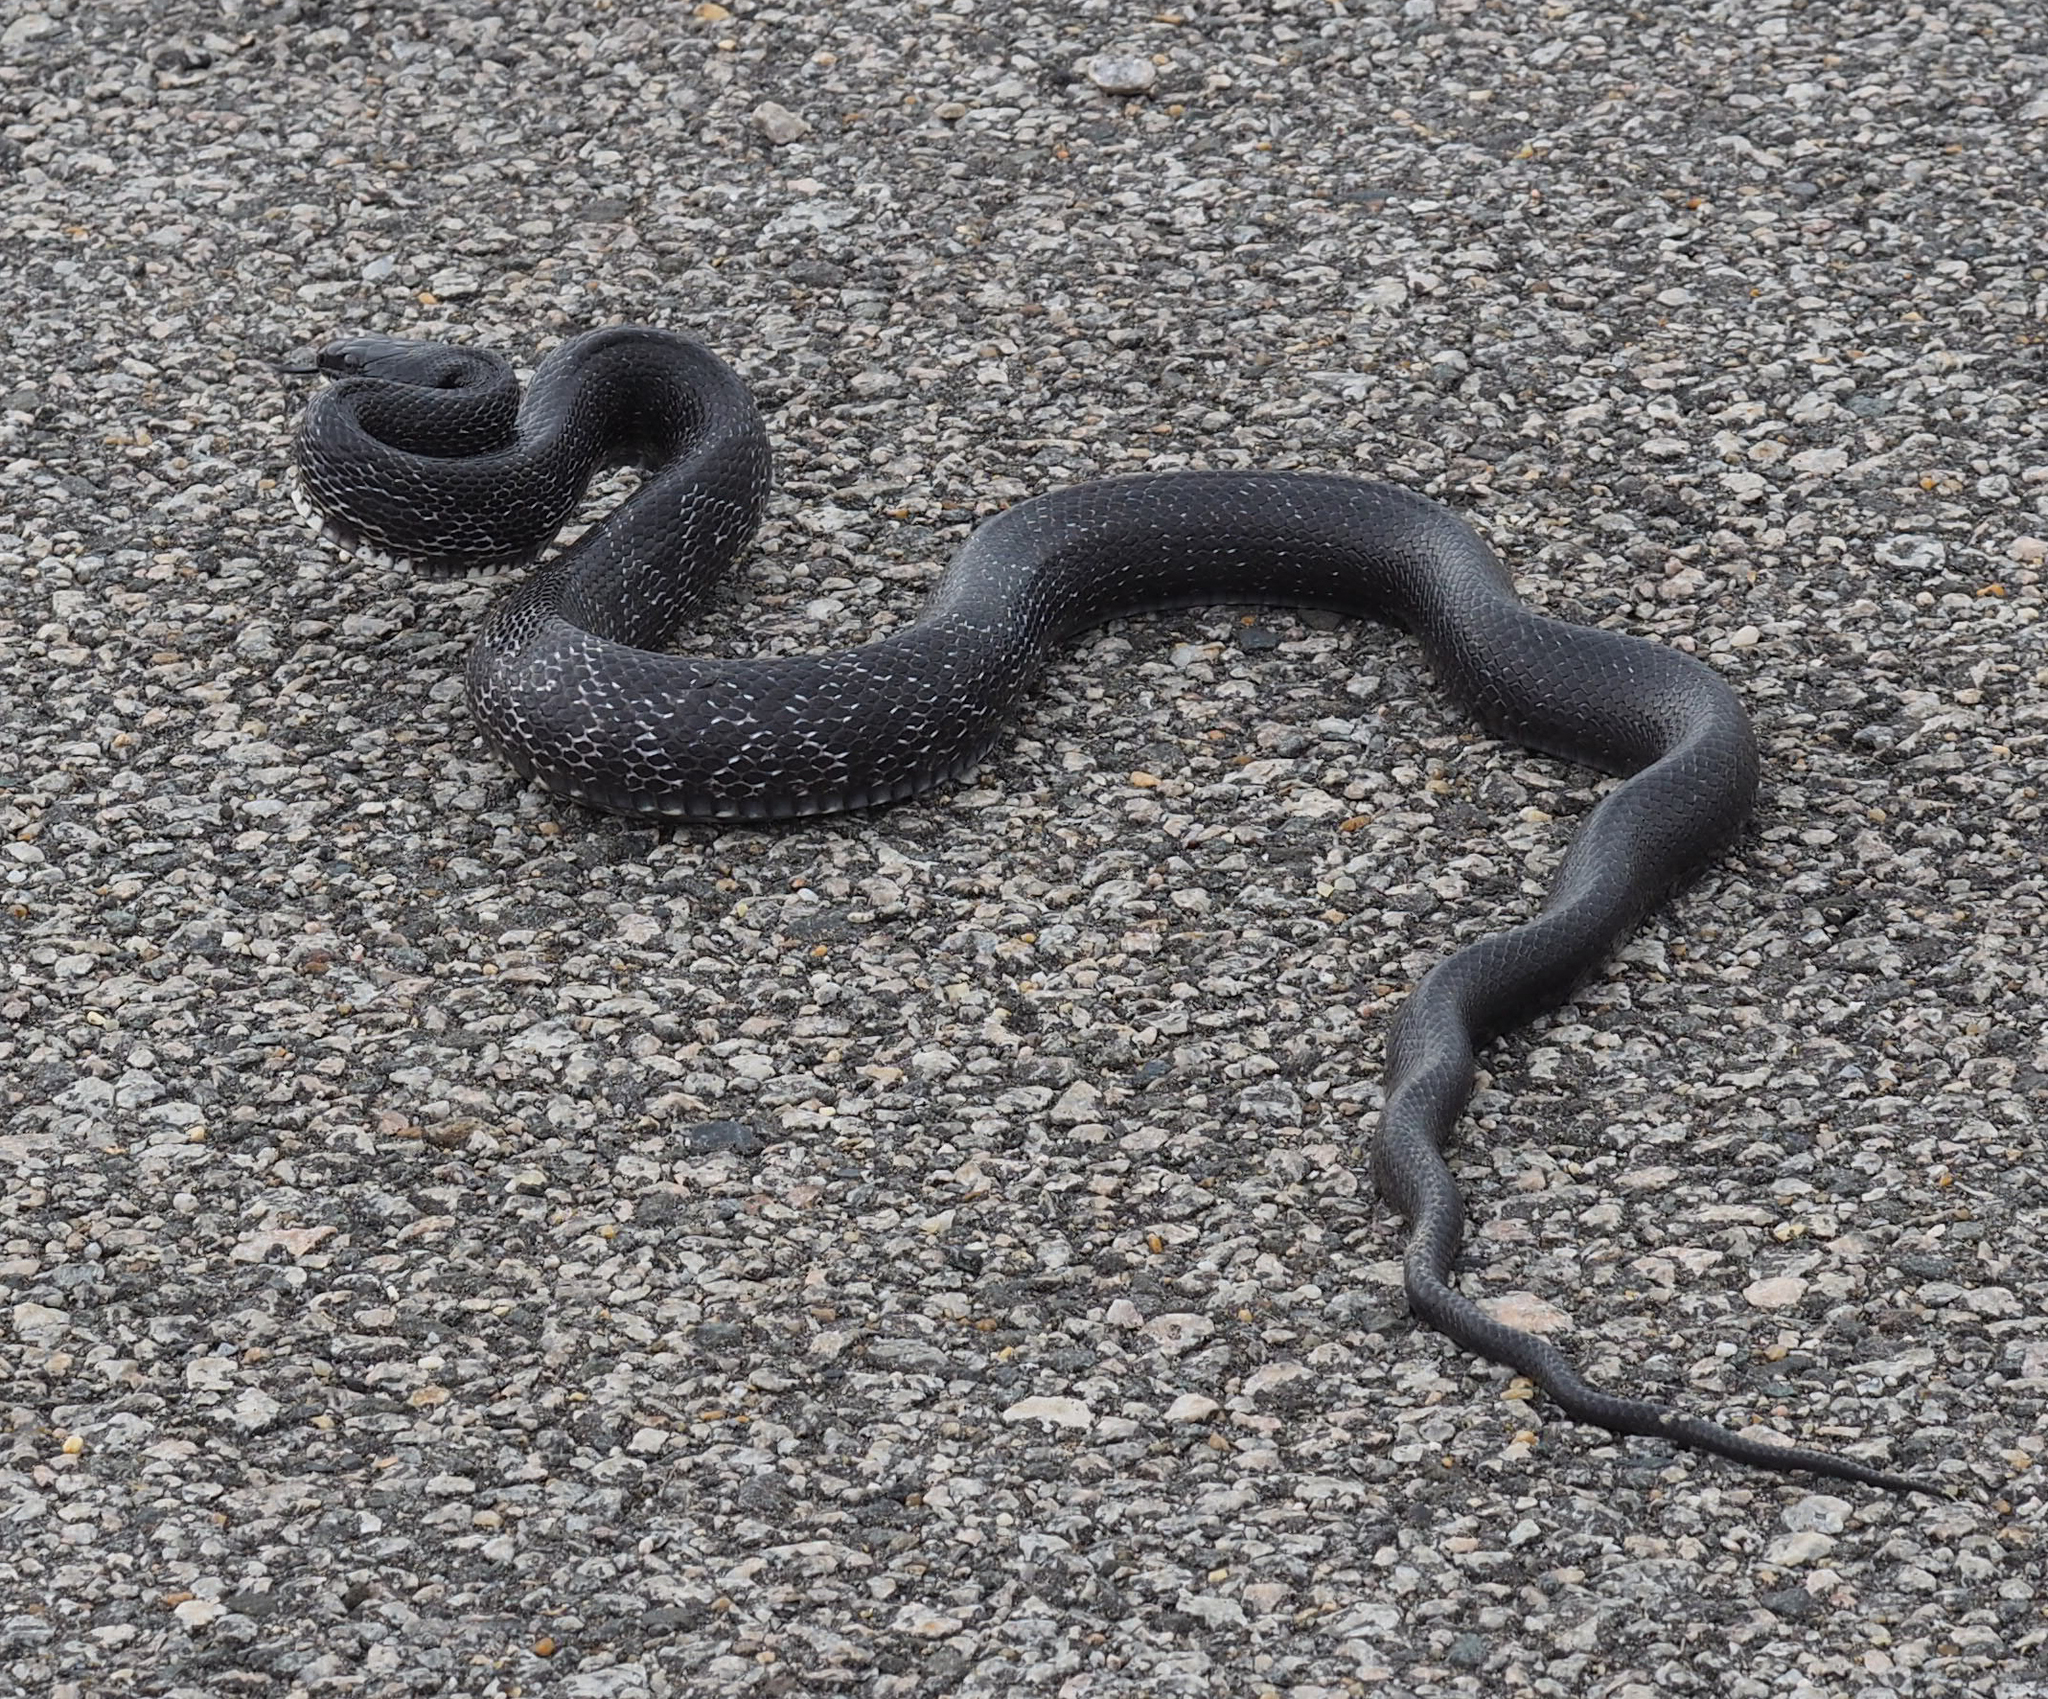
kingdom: Animalia
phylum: Chordata
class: Squamata
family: Colubridae
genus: Pantherophis
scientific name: Pantherophis alleghaniensis
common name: Eastern rat snake
